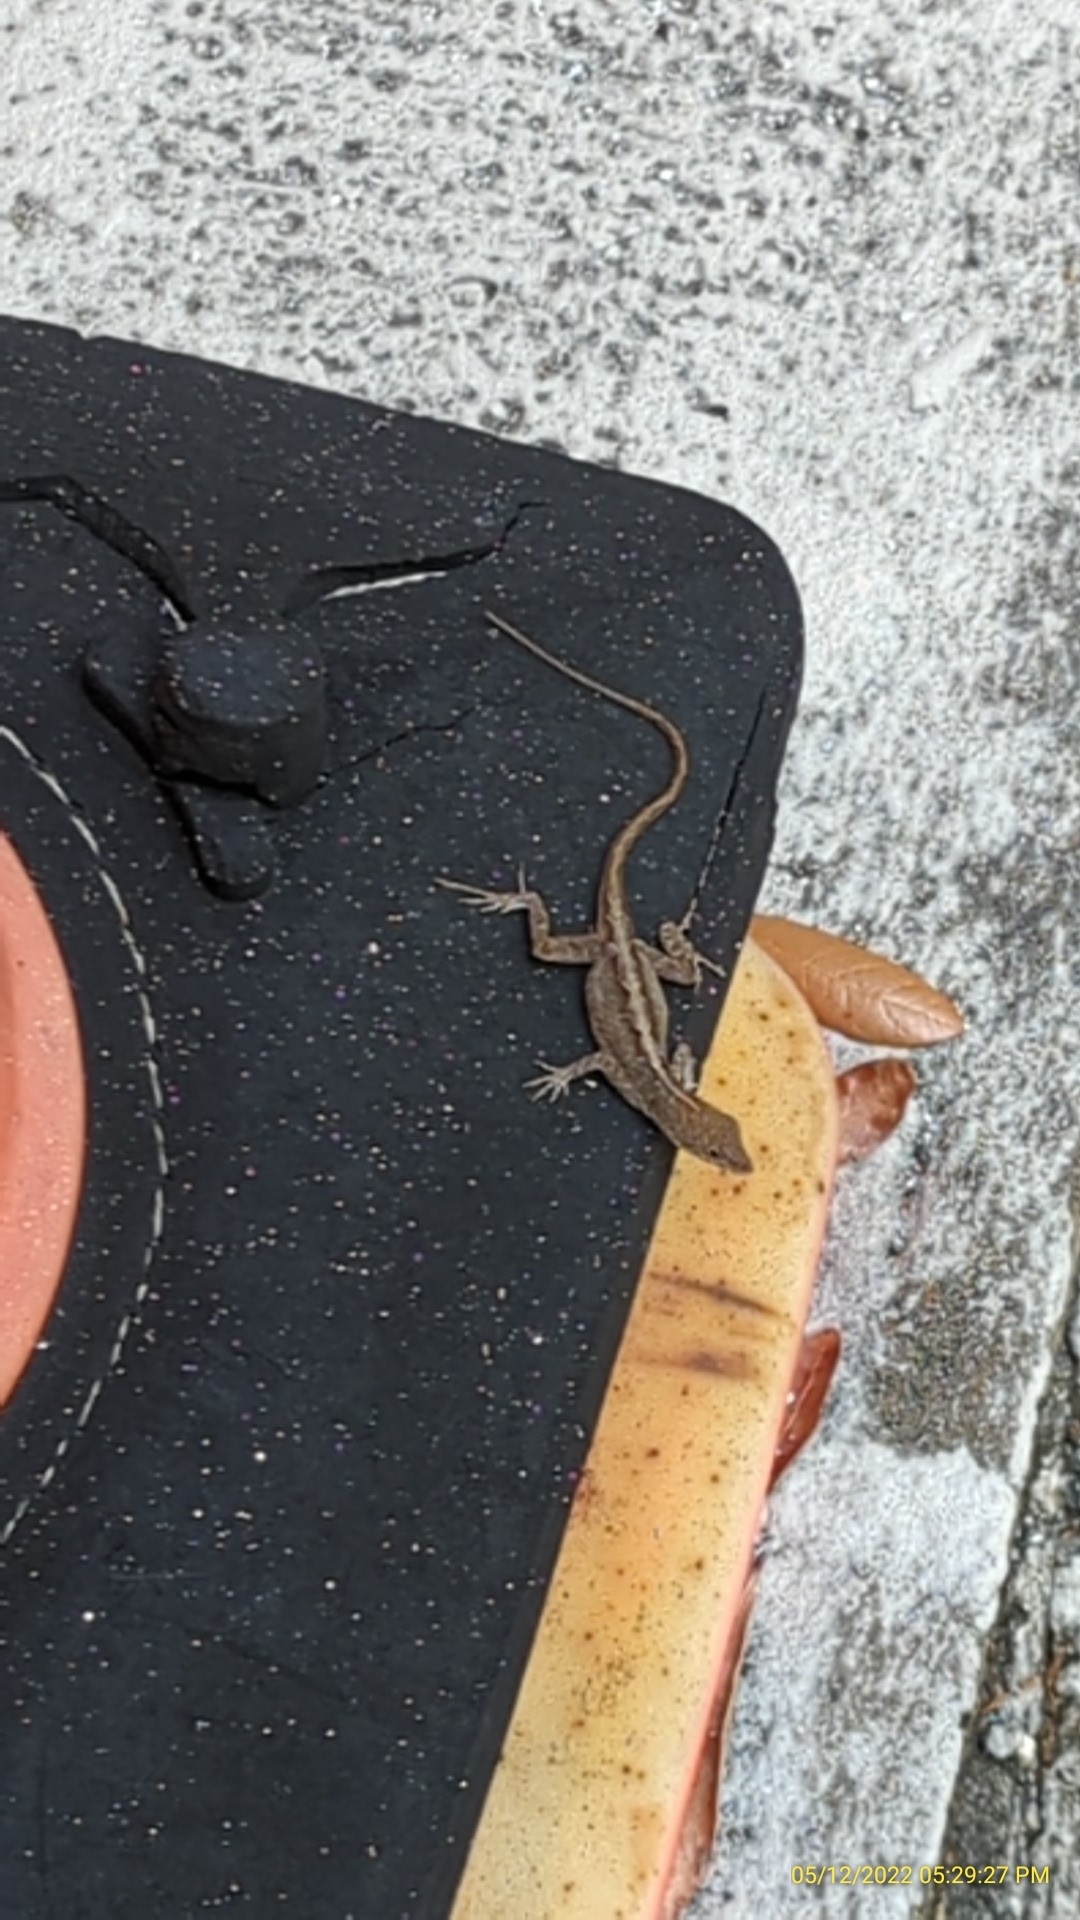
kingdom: Animalia
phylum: Chordata
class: Squamata
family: Dactyloidae
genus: Anolis
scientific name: Anolis sagrei
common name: Brown anole
